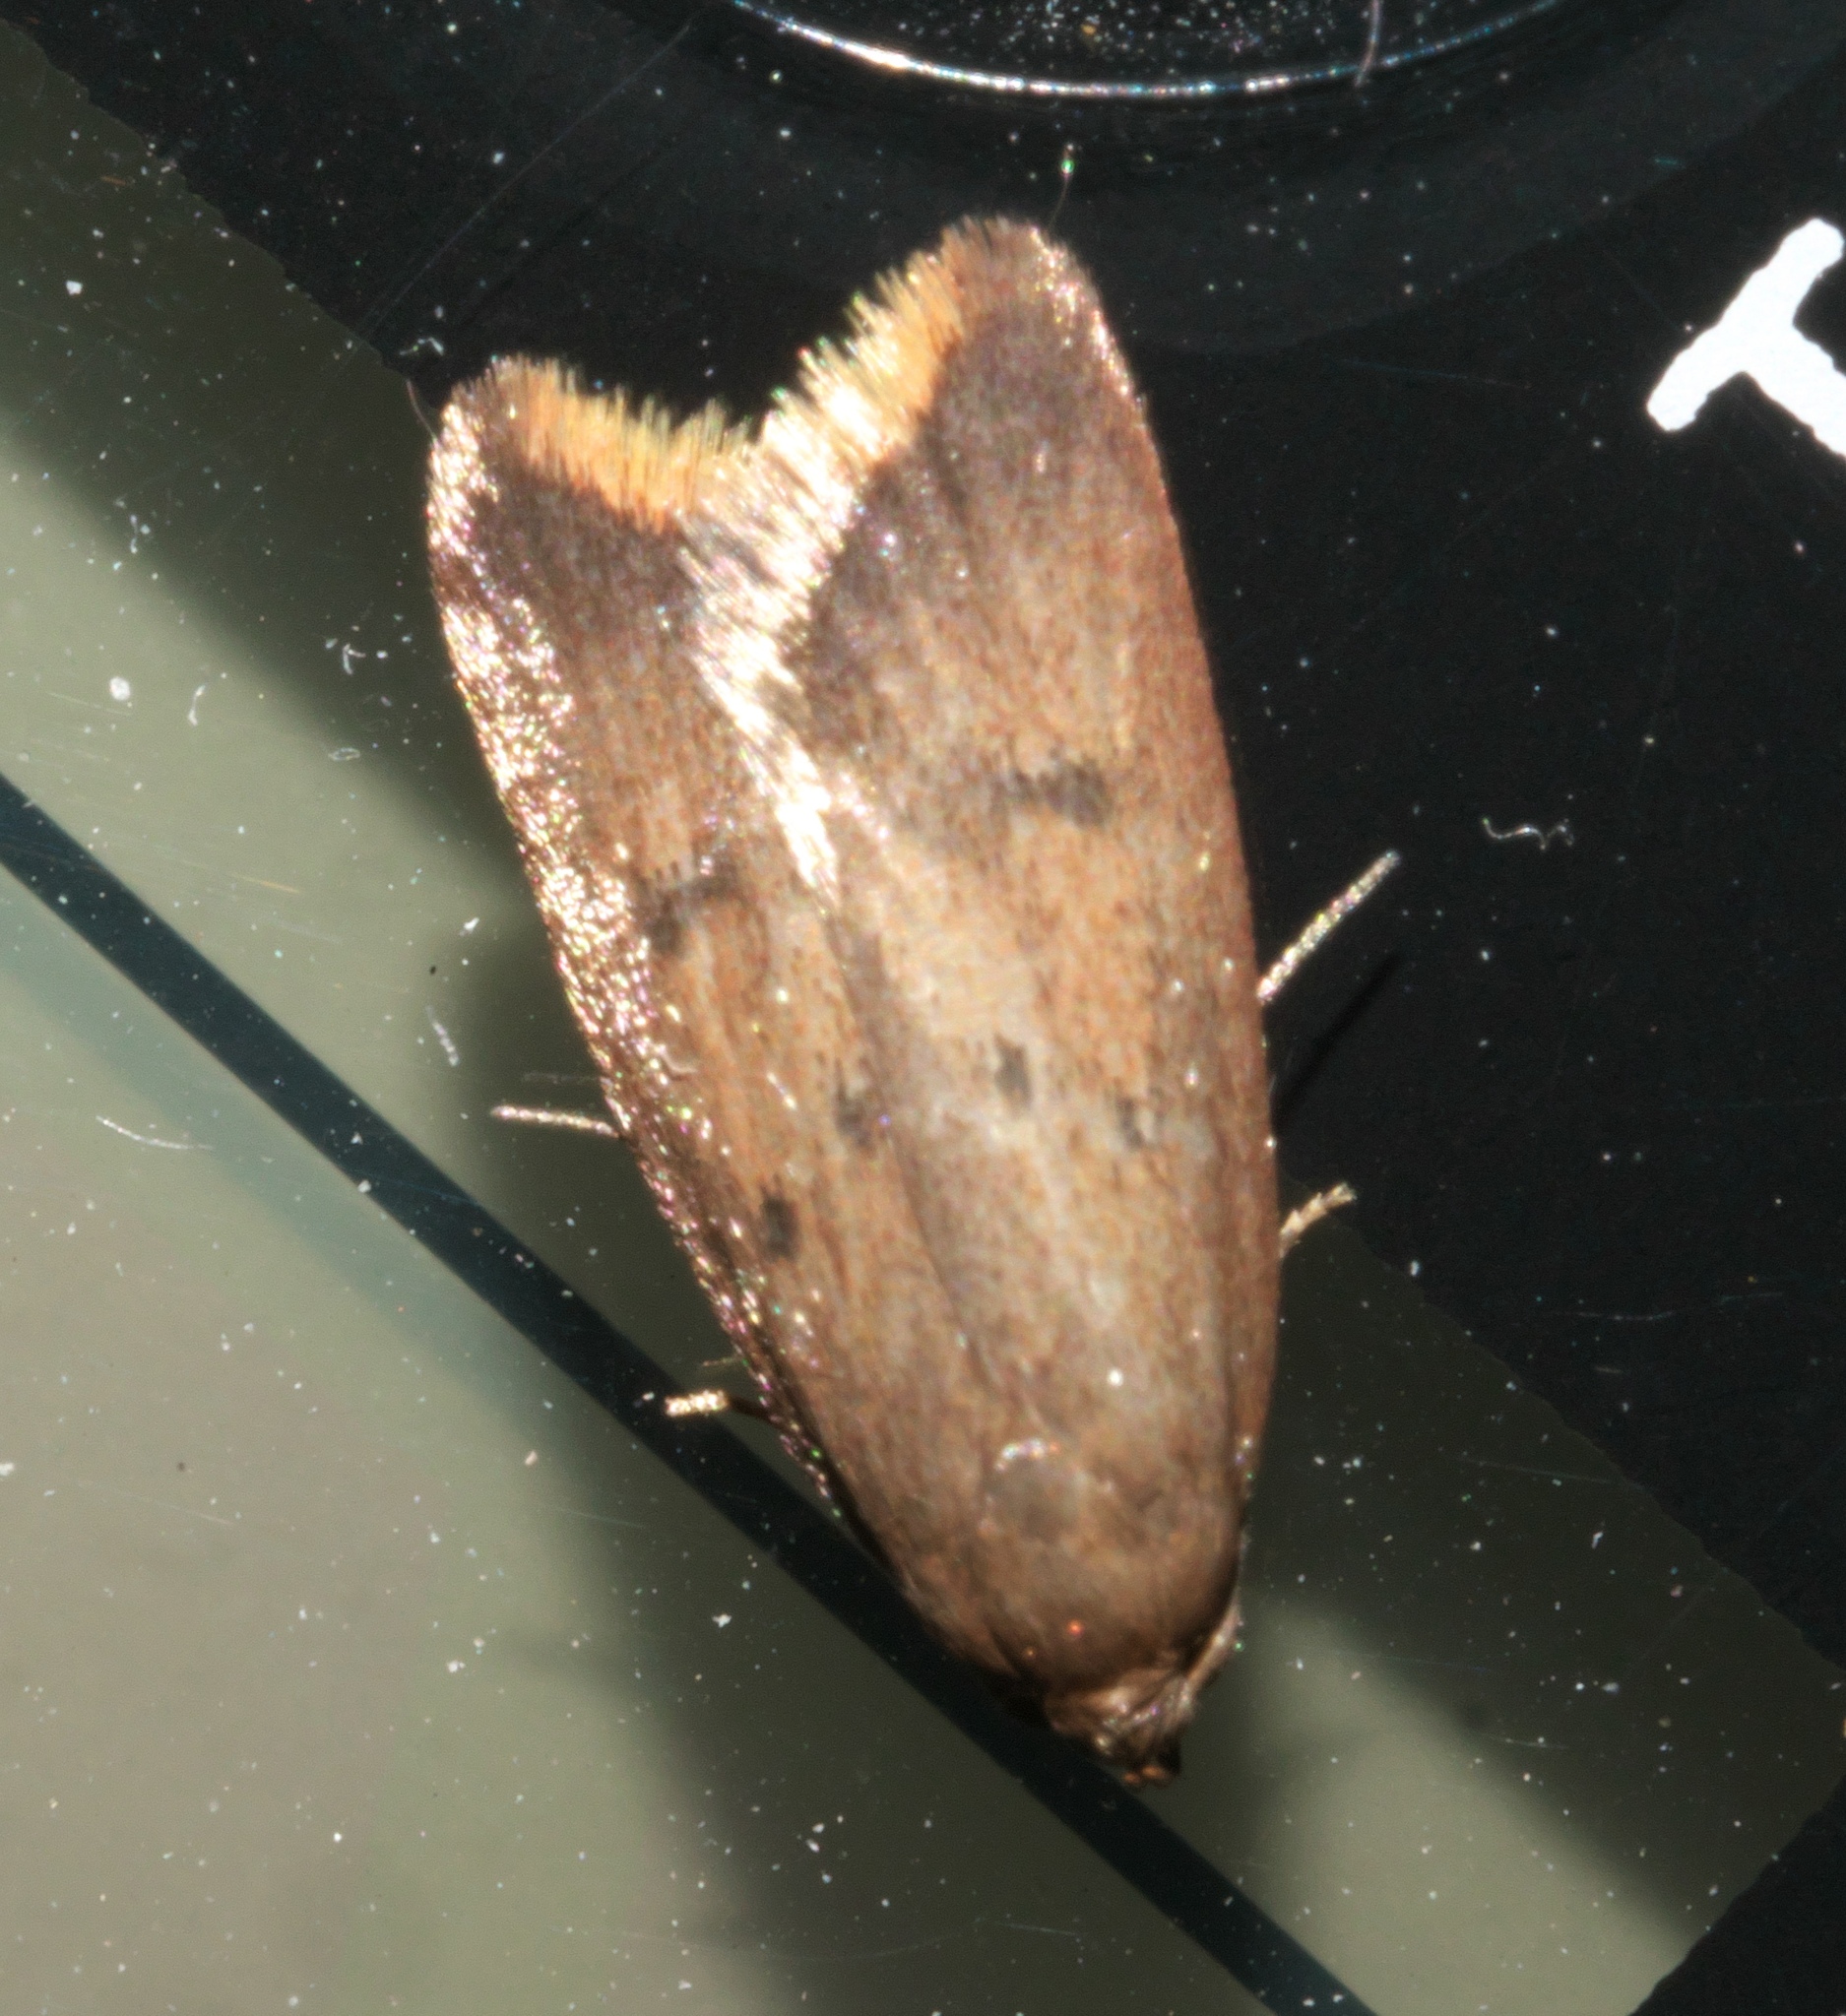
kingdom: Animalia
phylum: Arthropoda
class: Insecta
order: Lepidoptera
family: Oecophoridae
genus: Tachystola
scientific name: Tachystola acroxantha
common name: Ruddy streak
